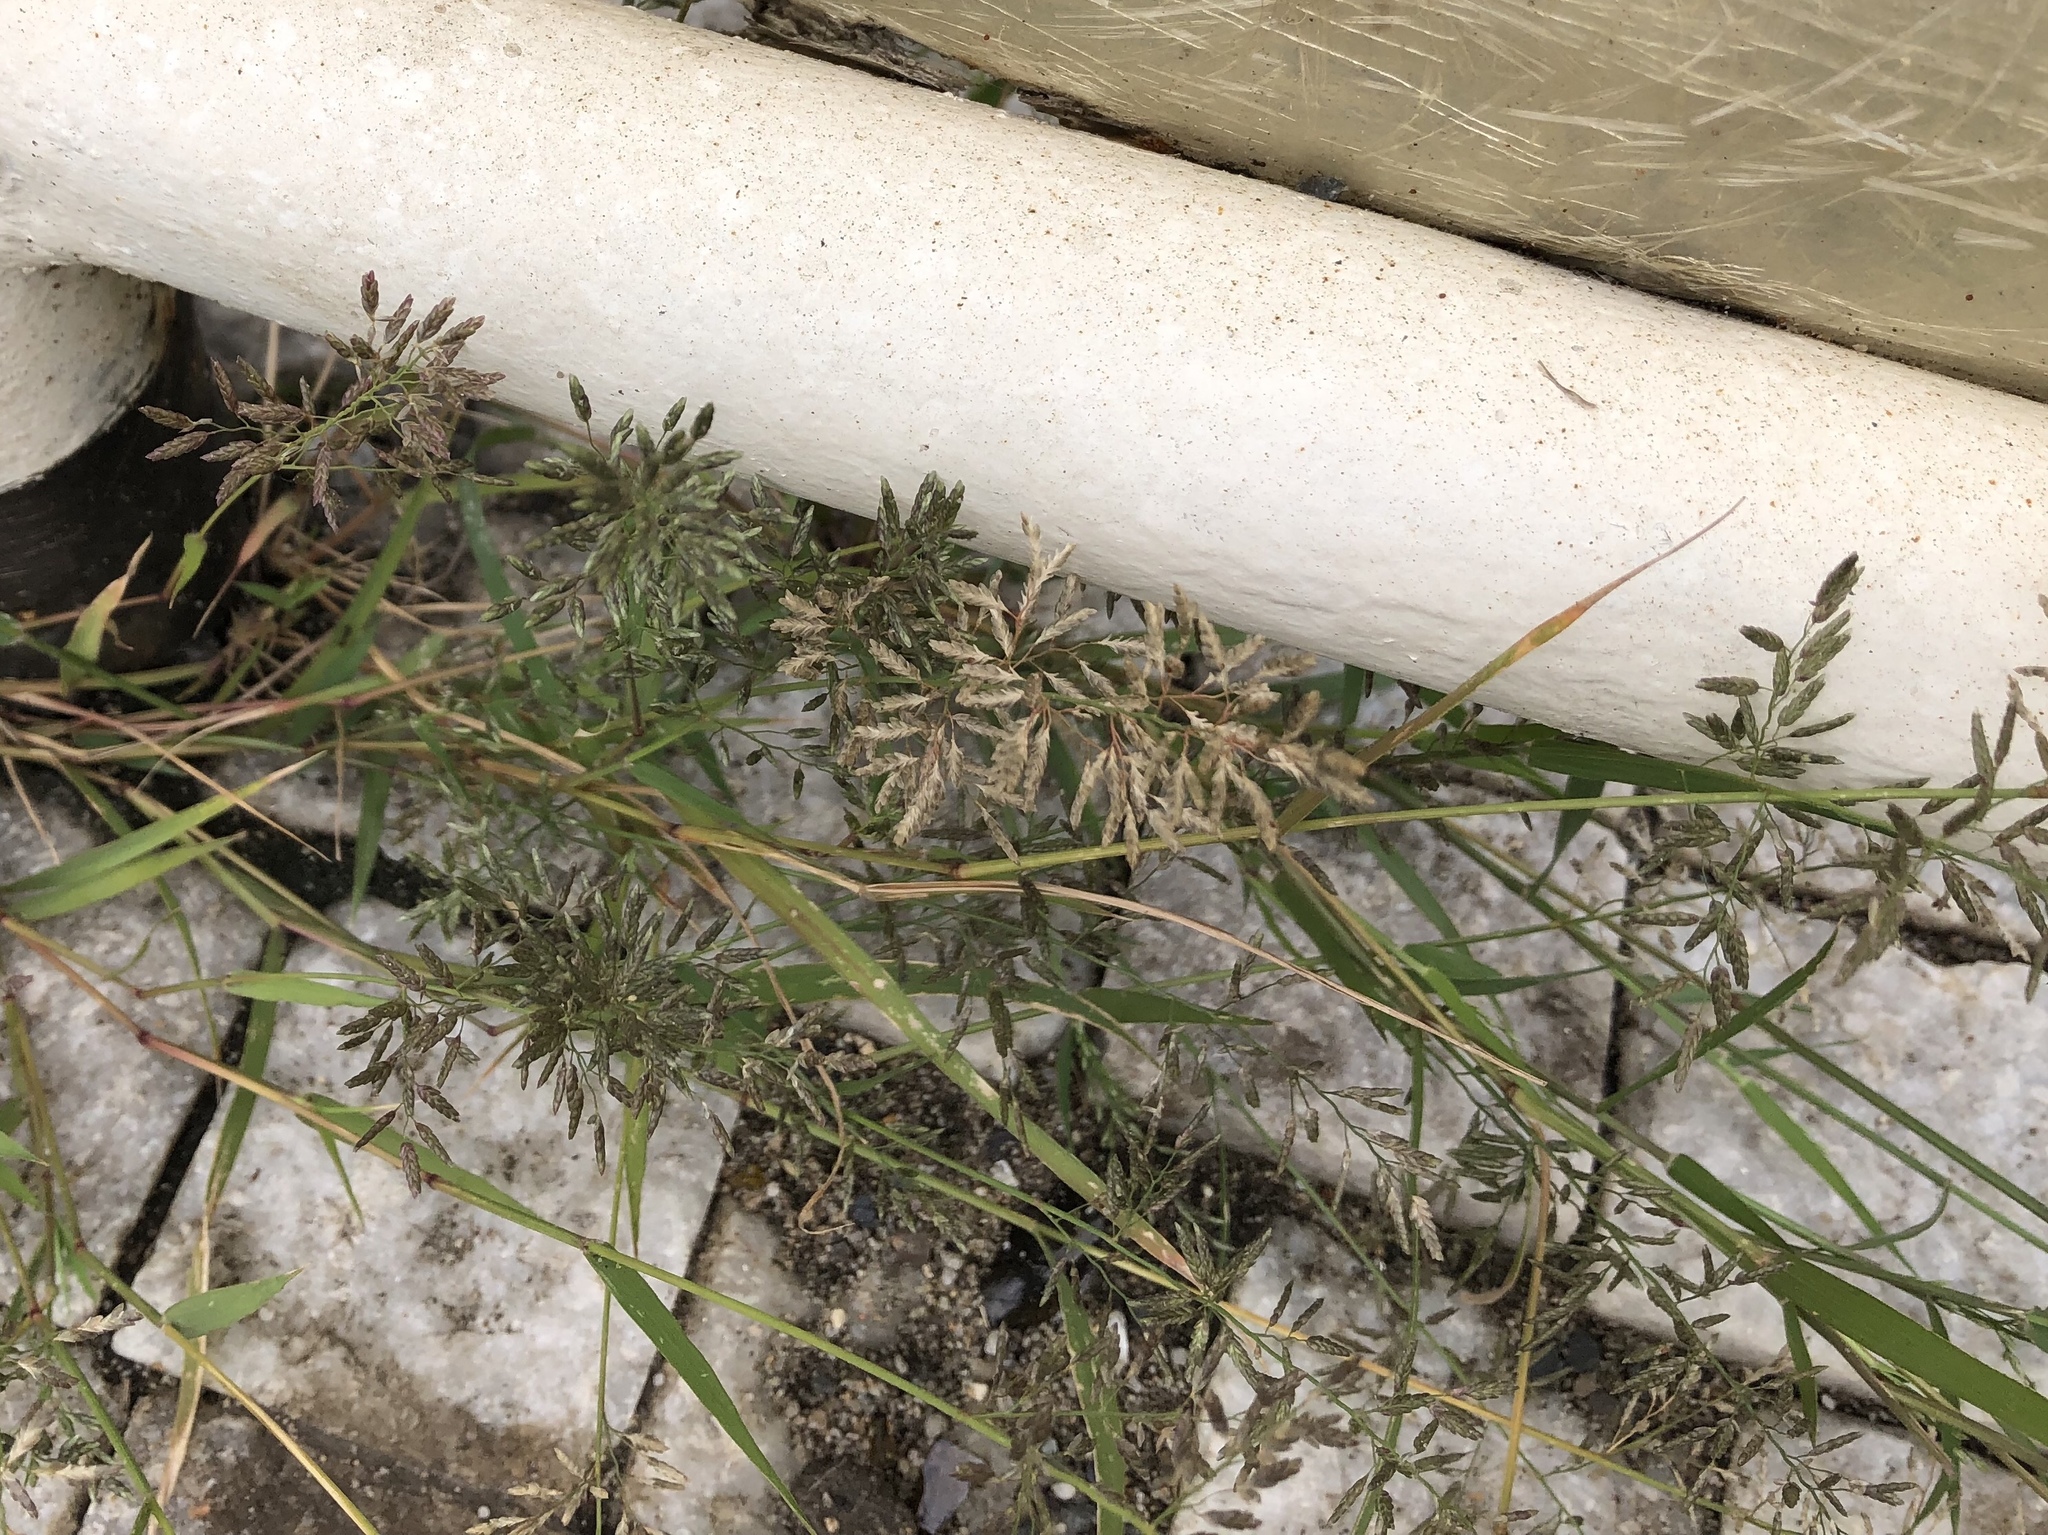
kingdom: Plantae
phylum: Tracheophyta
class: Liliopsida
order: Poales
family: Poaceae
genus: Eragrostis
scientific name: Eragrostis minor
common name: Small love-grass
